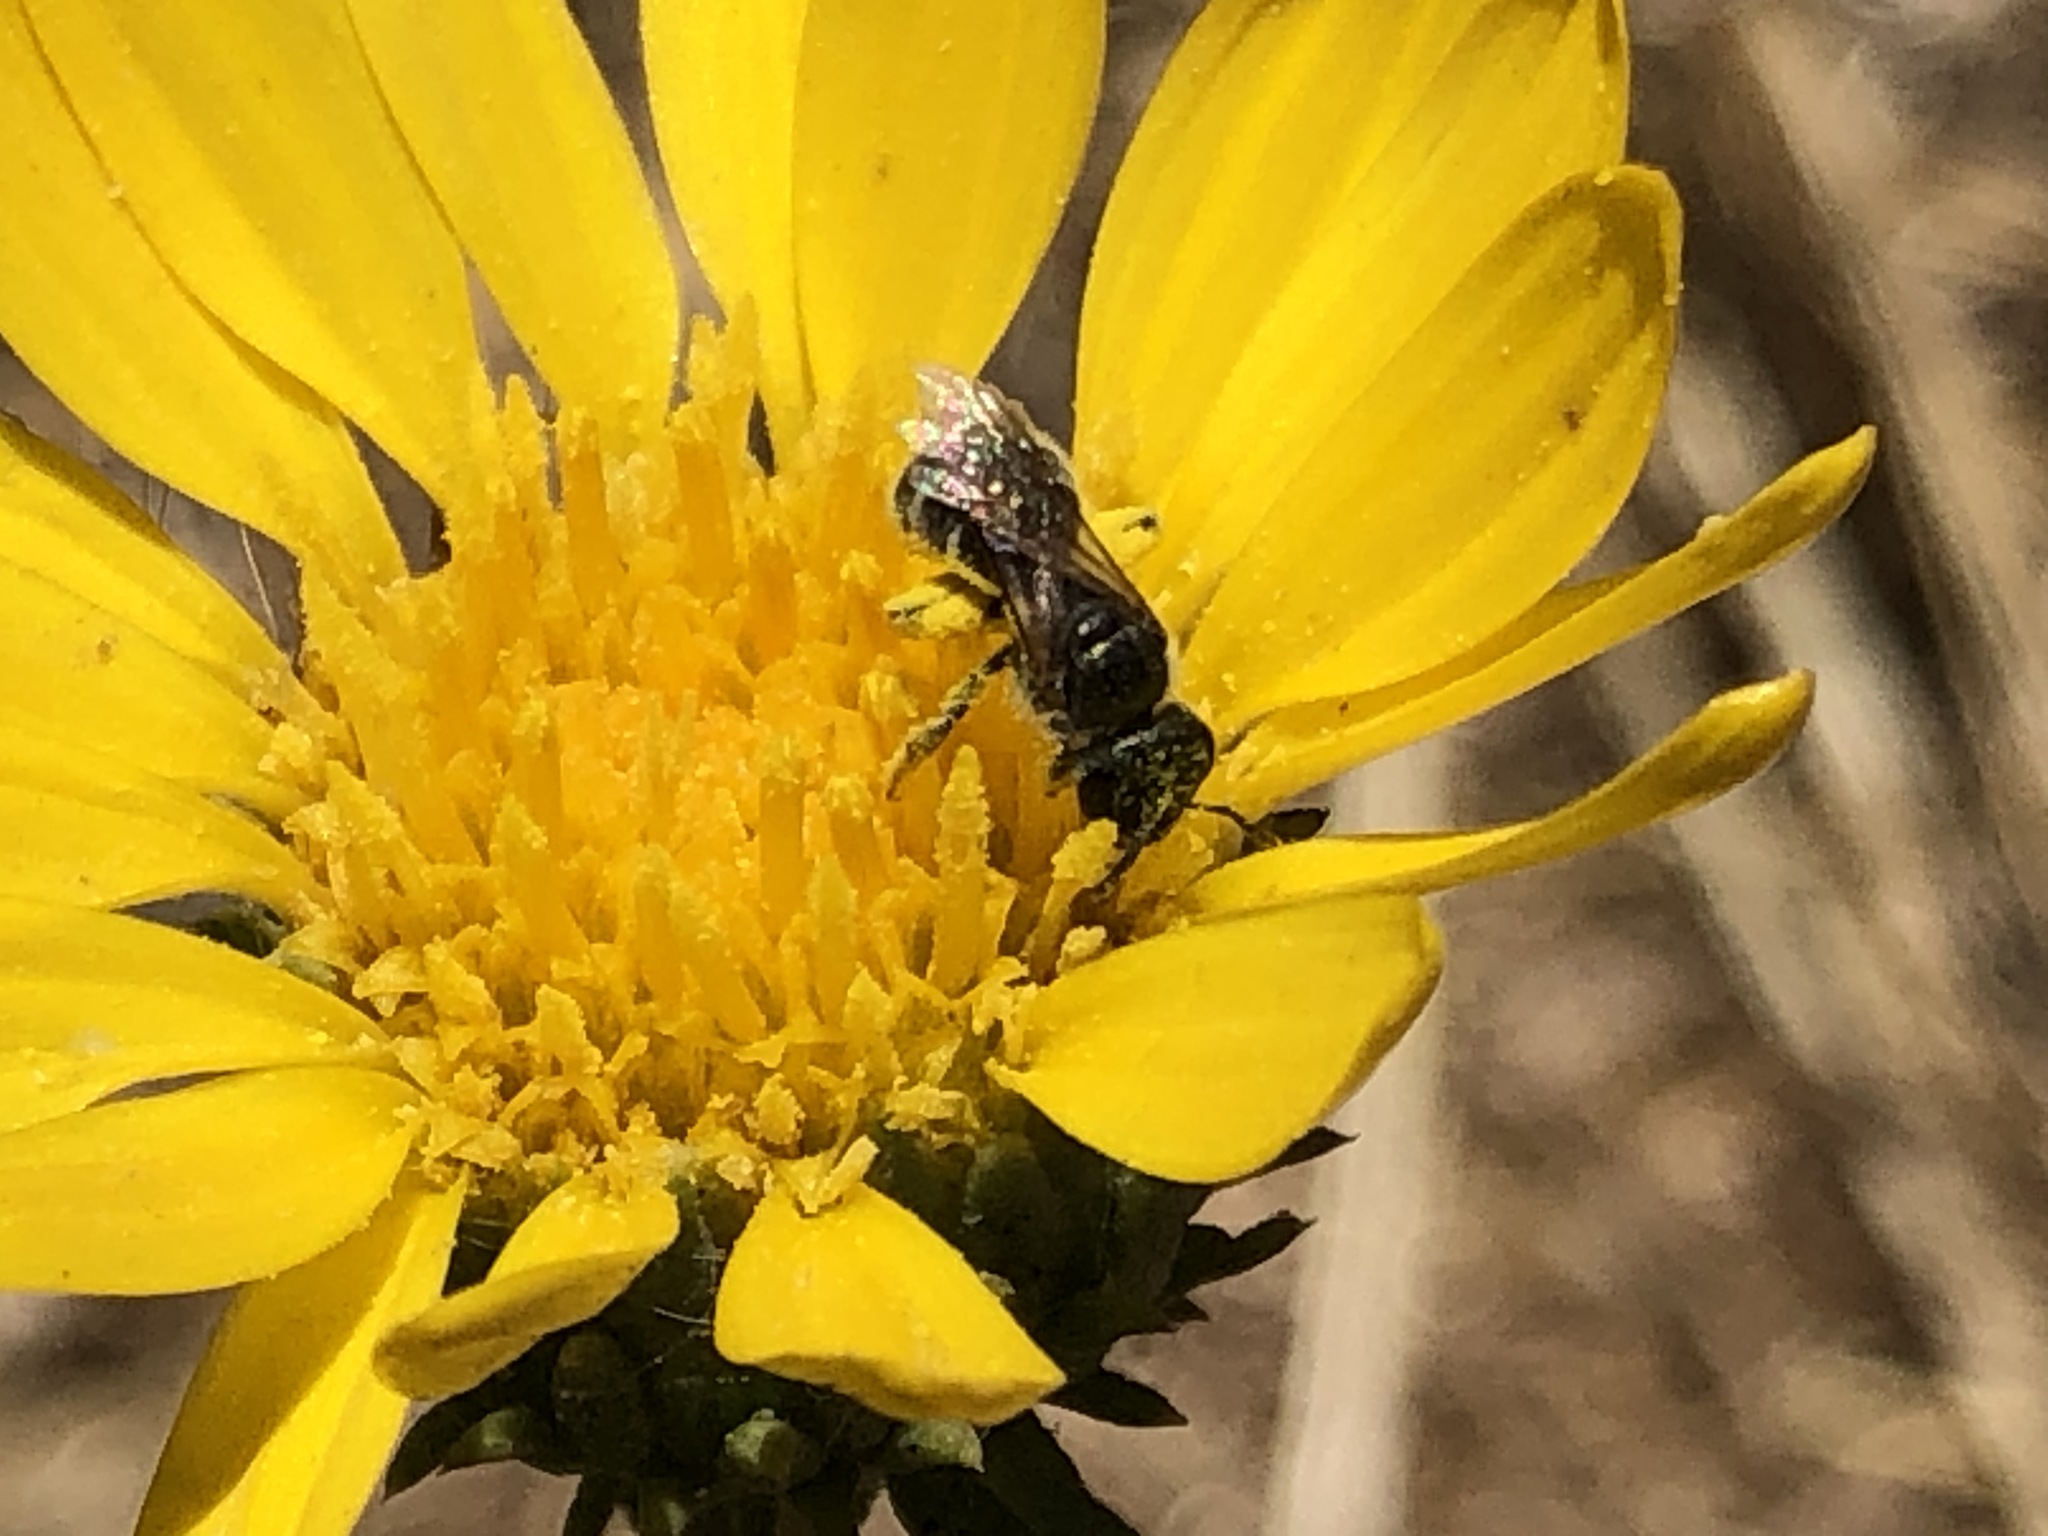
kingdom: Animalia
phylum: Arthropoda
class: Insecta
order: Hymenoptera
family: Halictidae
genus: Halictus
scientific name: Halictus tripartitus
